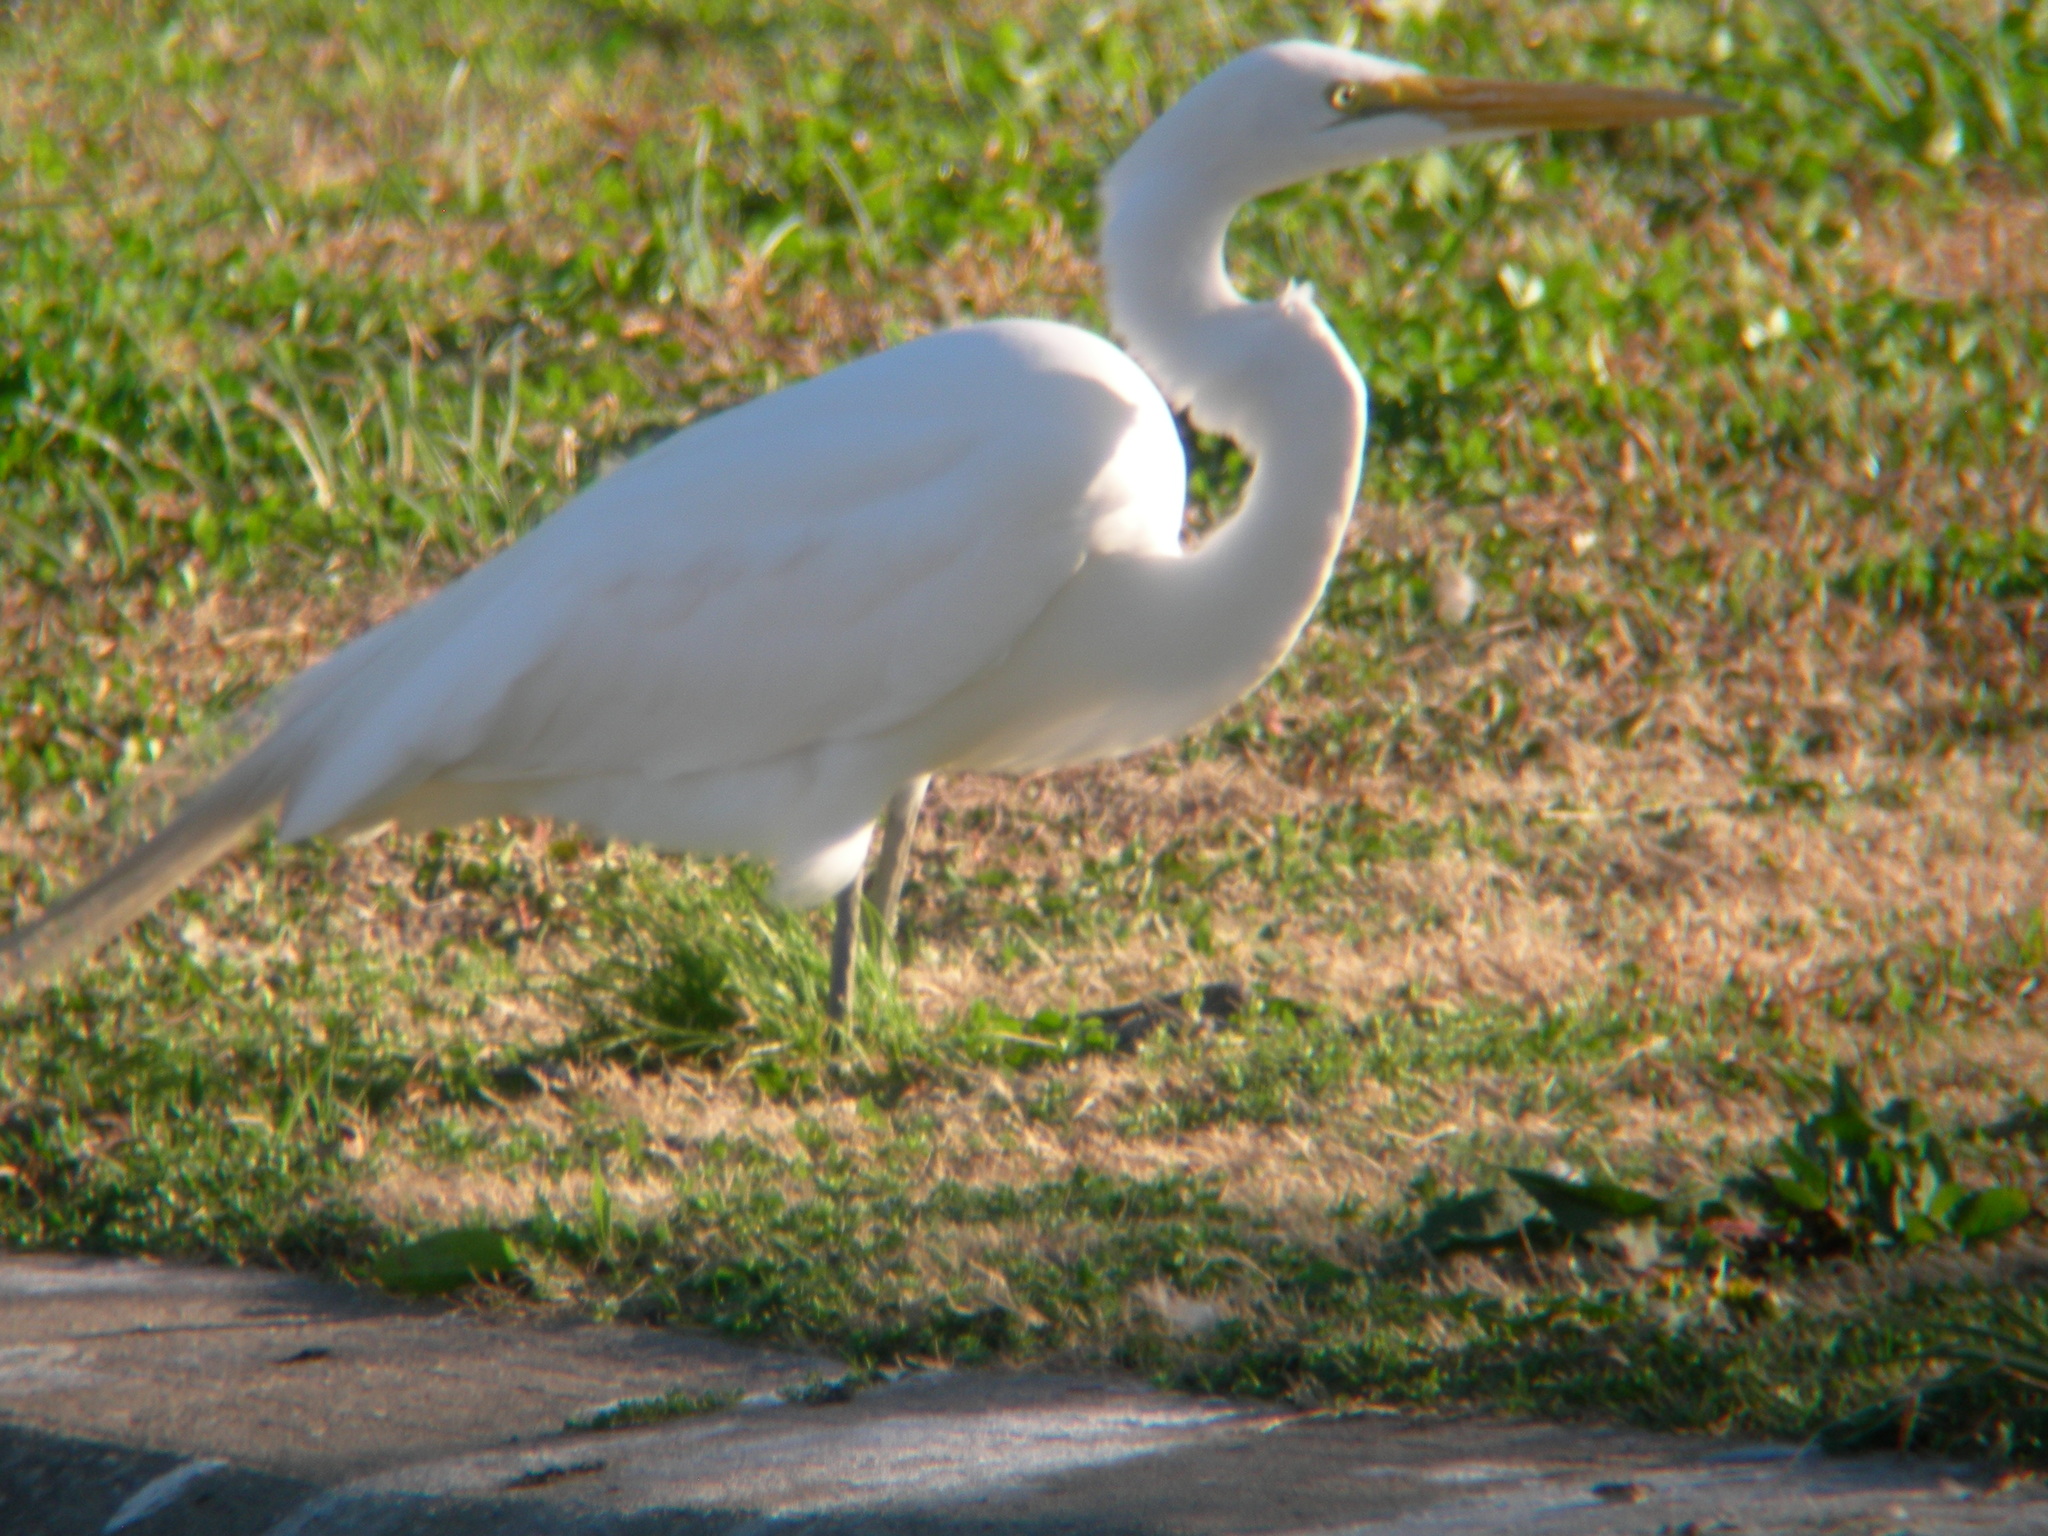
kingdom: Animalia
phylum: Chordata
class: Aves
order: Pelecaniformes
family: Ardeidae
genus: Ardea
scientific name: Ardea alba
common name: Great egret
